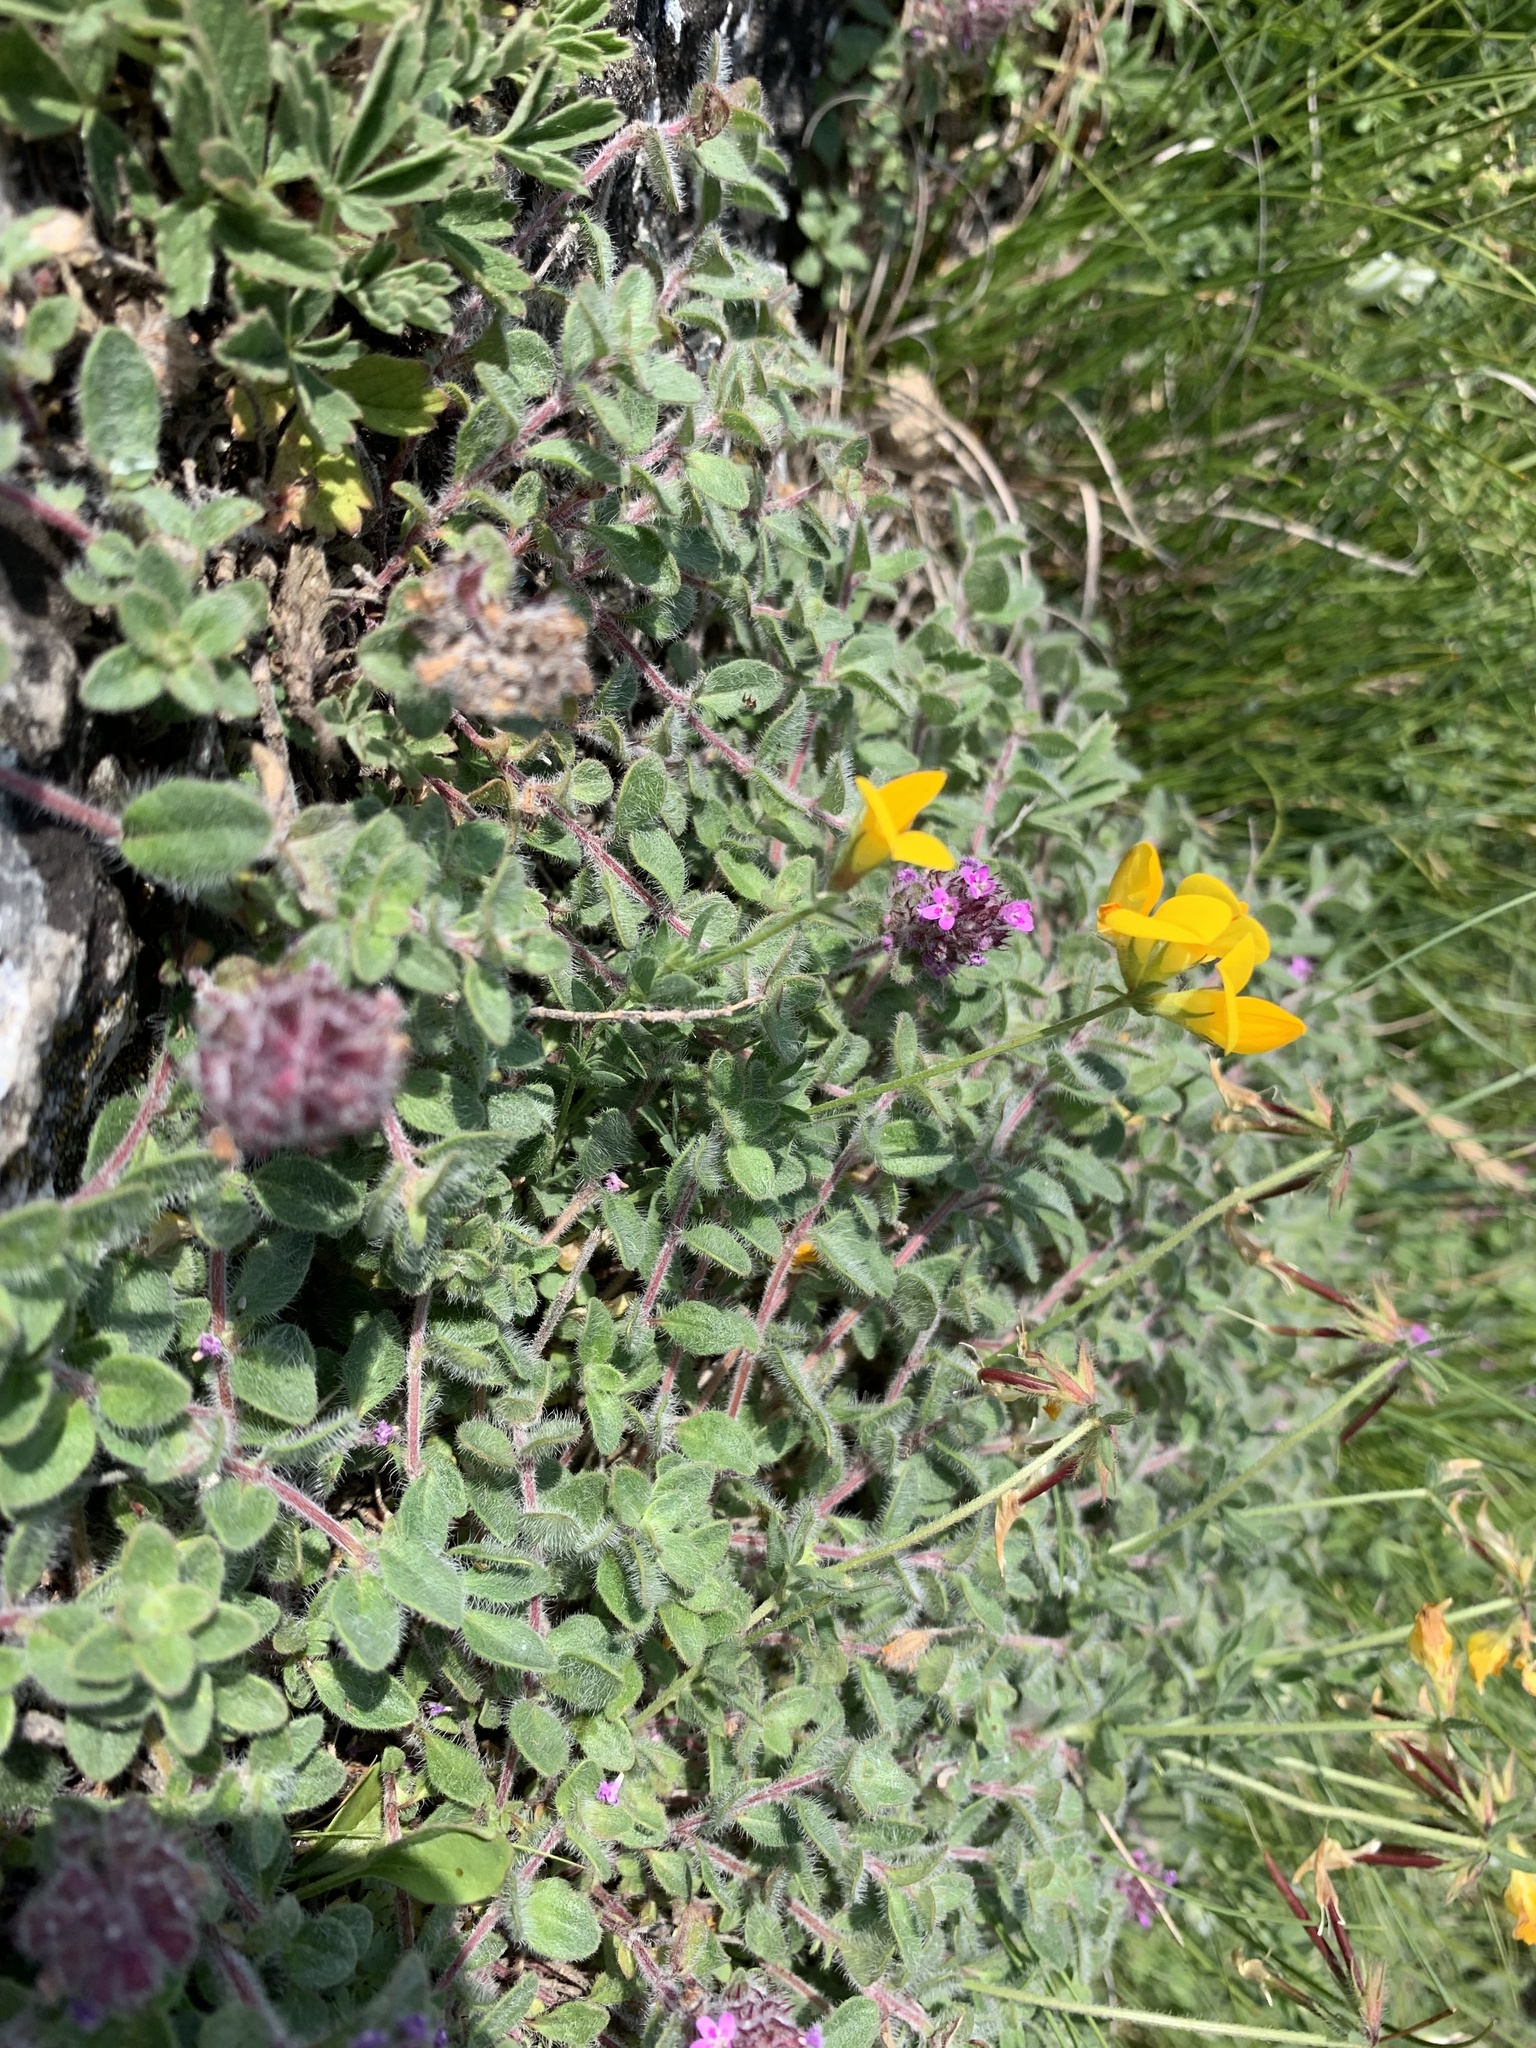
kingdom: Plantae
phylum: Tracheophyta
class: Magnoliopsida
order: Fabales
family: Fabaceae
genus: Lotus
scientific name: Lotus borbasii
